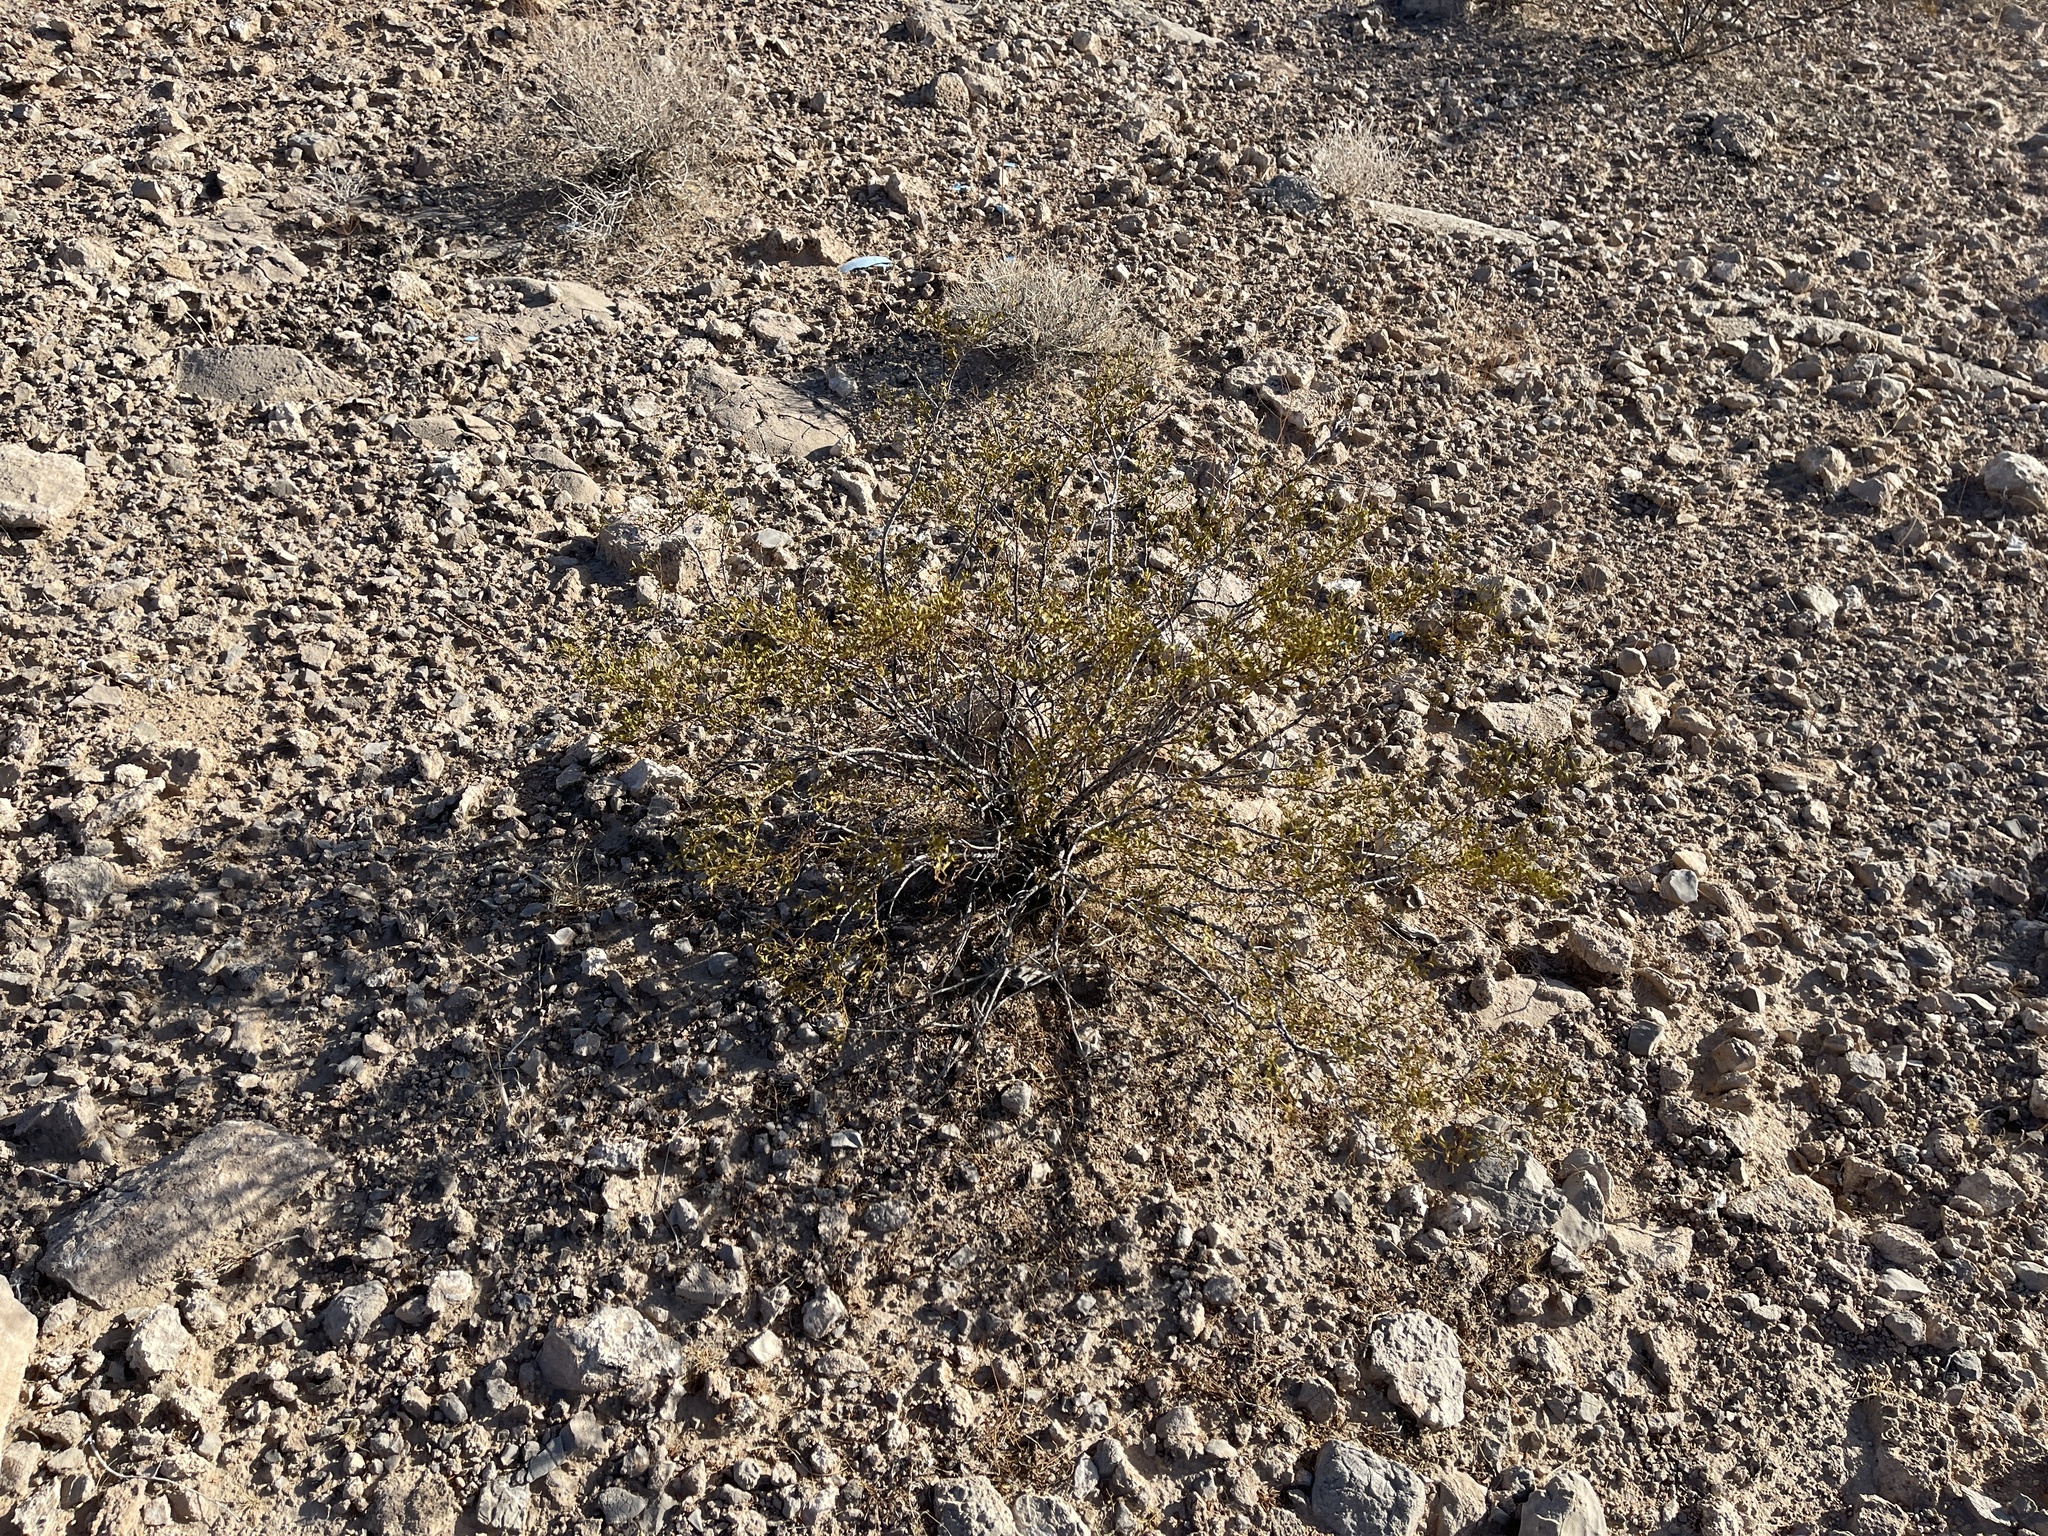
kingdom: Plantae
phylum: Tracheophyta
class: Magnoliopsida
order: Zygophyllales
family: Zygophyllaceae
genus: Larrea
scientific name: Larrea tridentata
